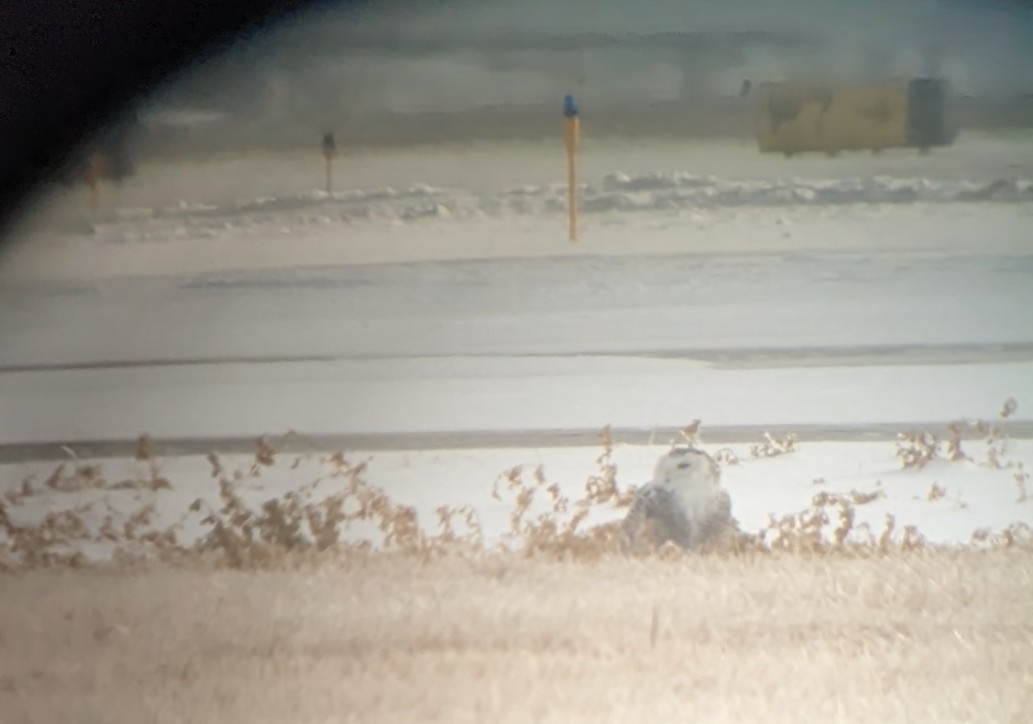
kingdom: Animalia
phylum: Chordata
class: Aves
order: Strigiformes
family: Strigidae
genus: Bubo
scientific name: Bubo scandiacus
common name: Snowy owl
